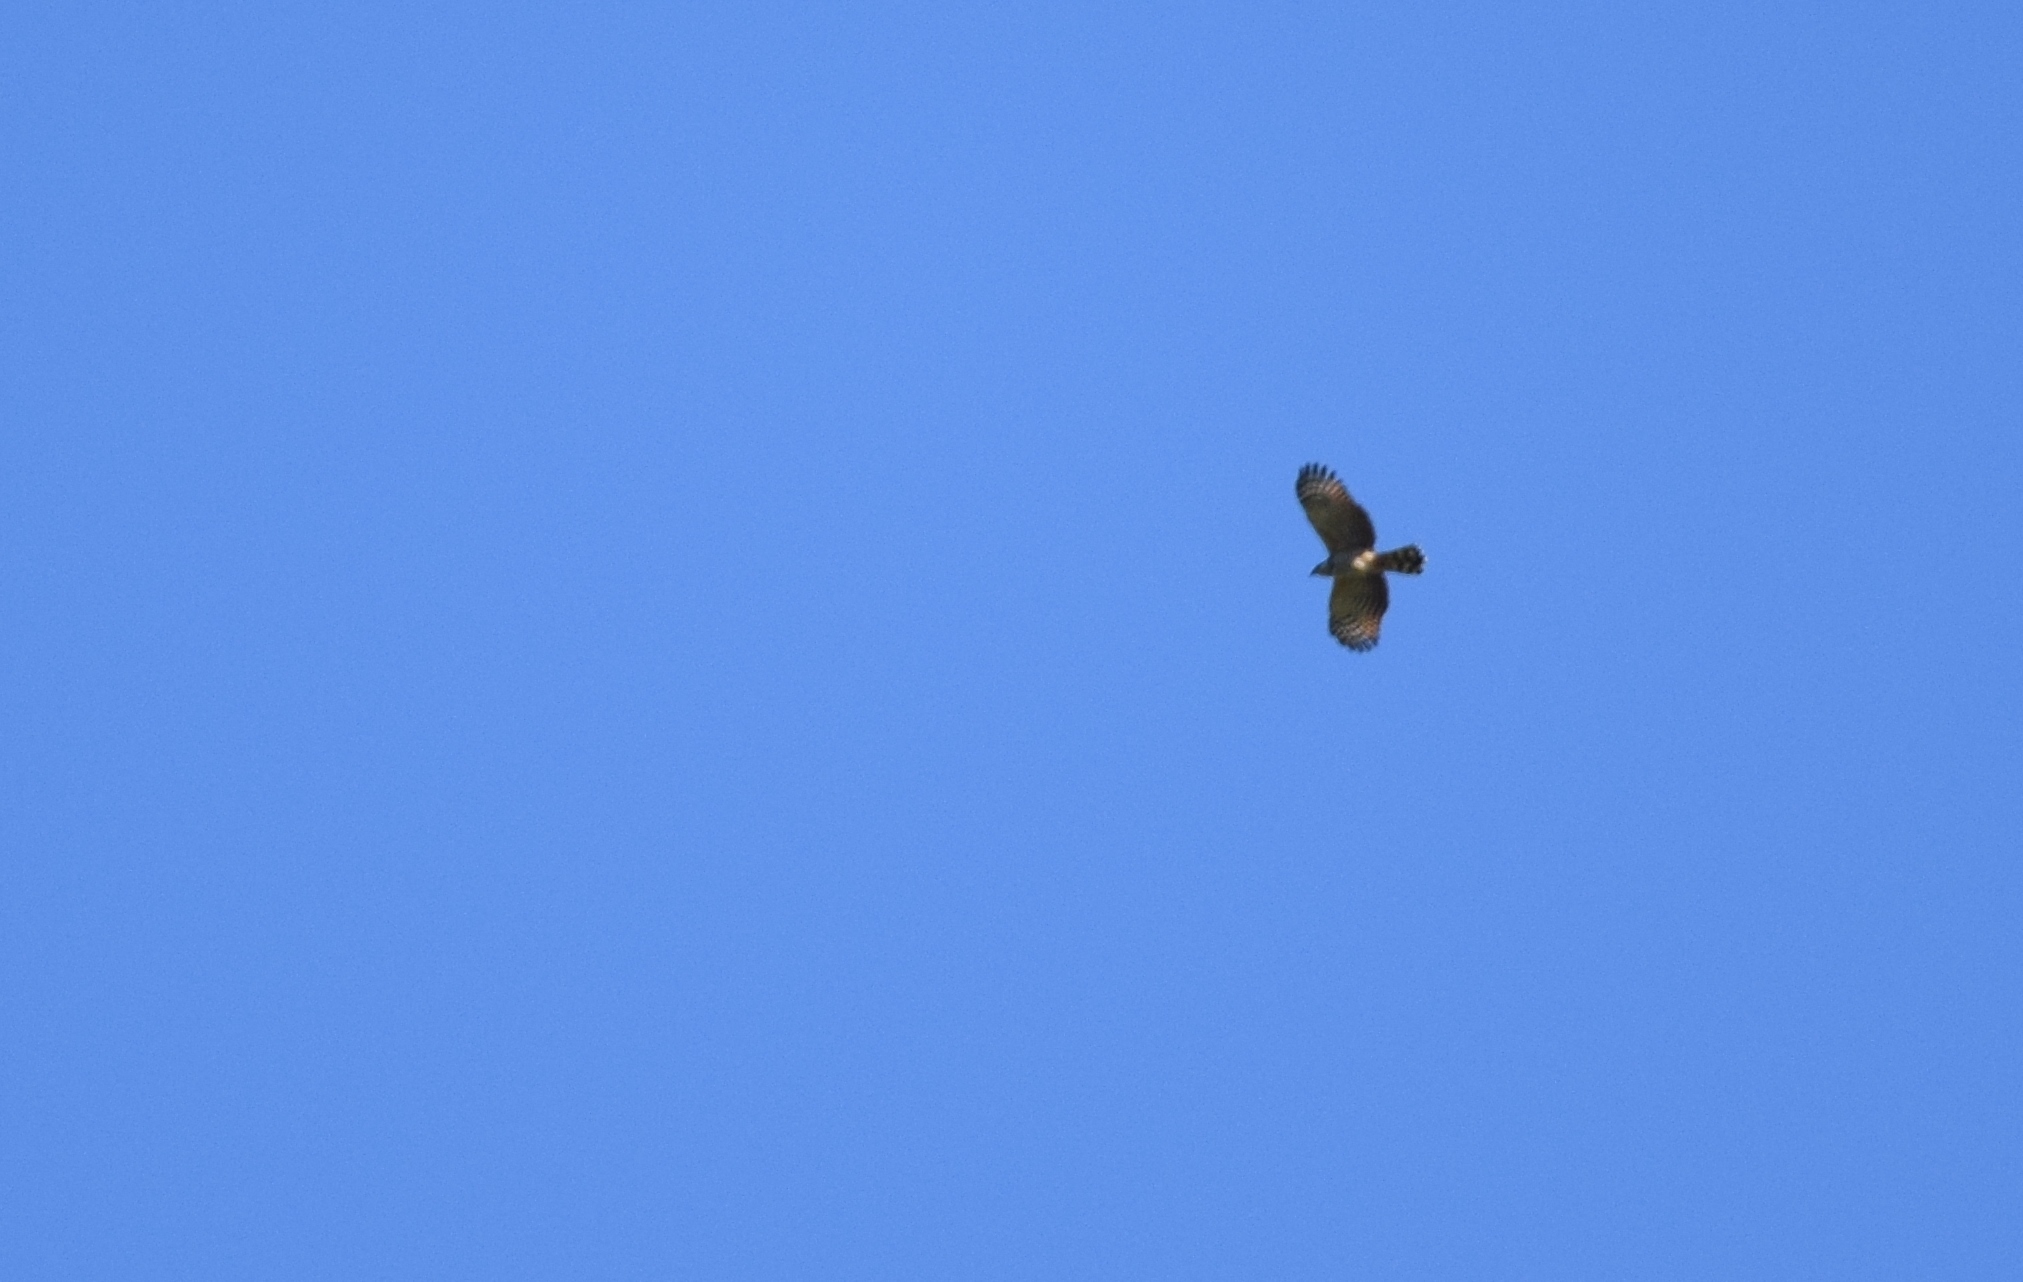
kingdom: Animalia
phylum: Chordata
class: Aves
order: Accipitriformes
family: Accipitridae
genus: Chondrohierax
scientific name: Chondrohierax uncinatus
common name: Hook-billed kite
